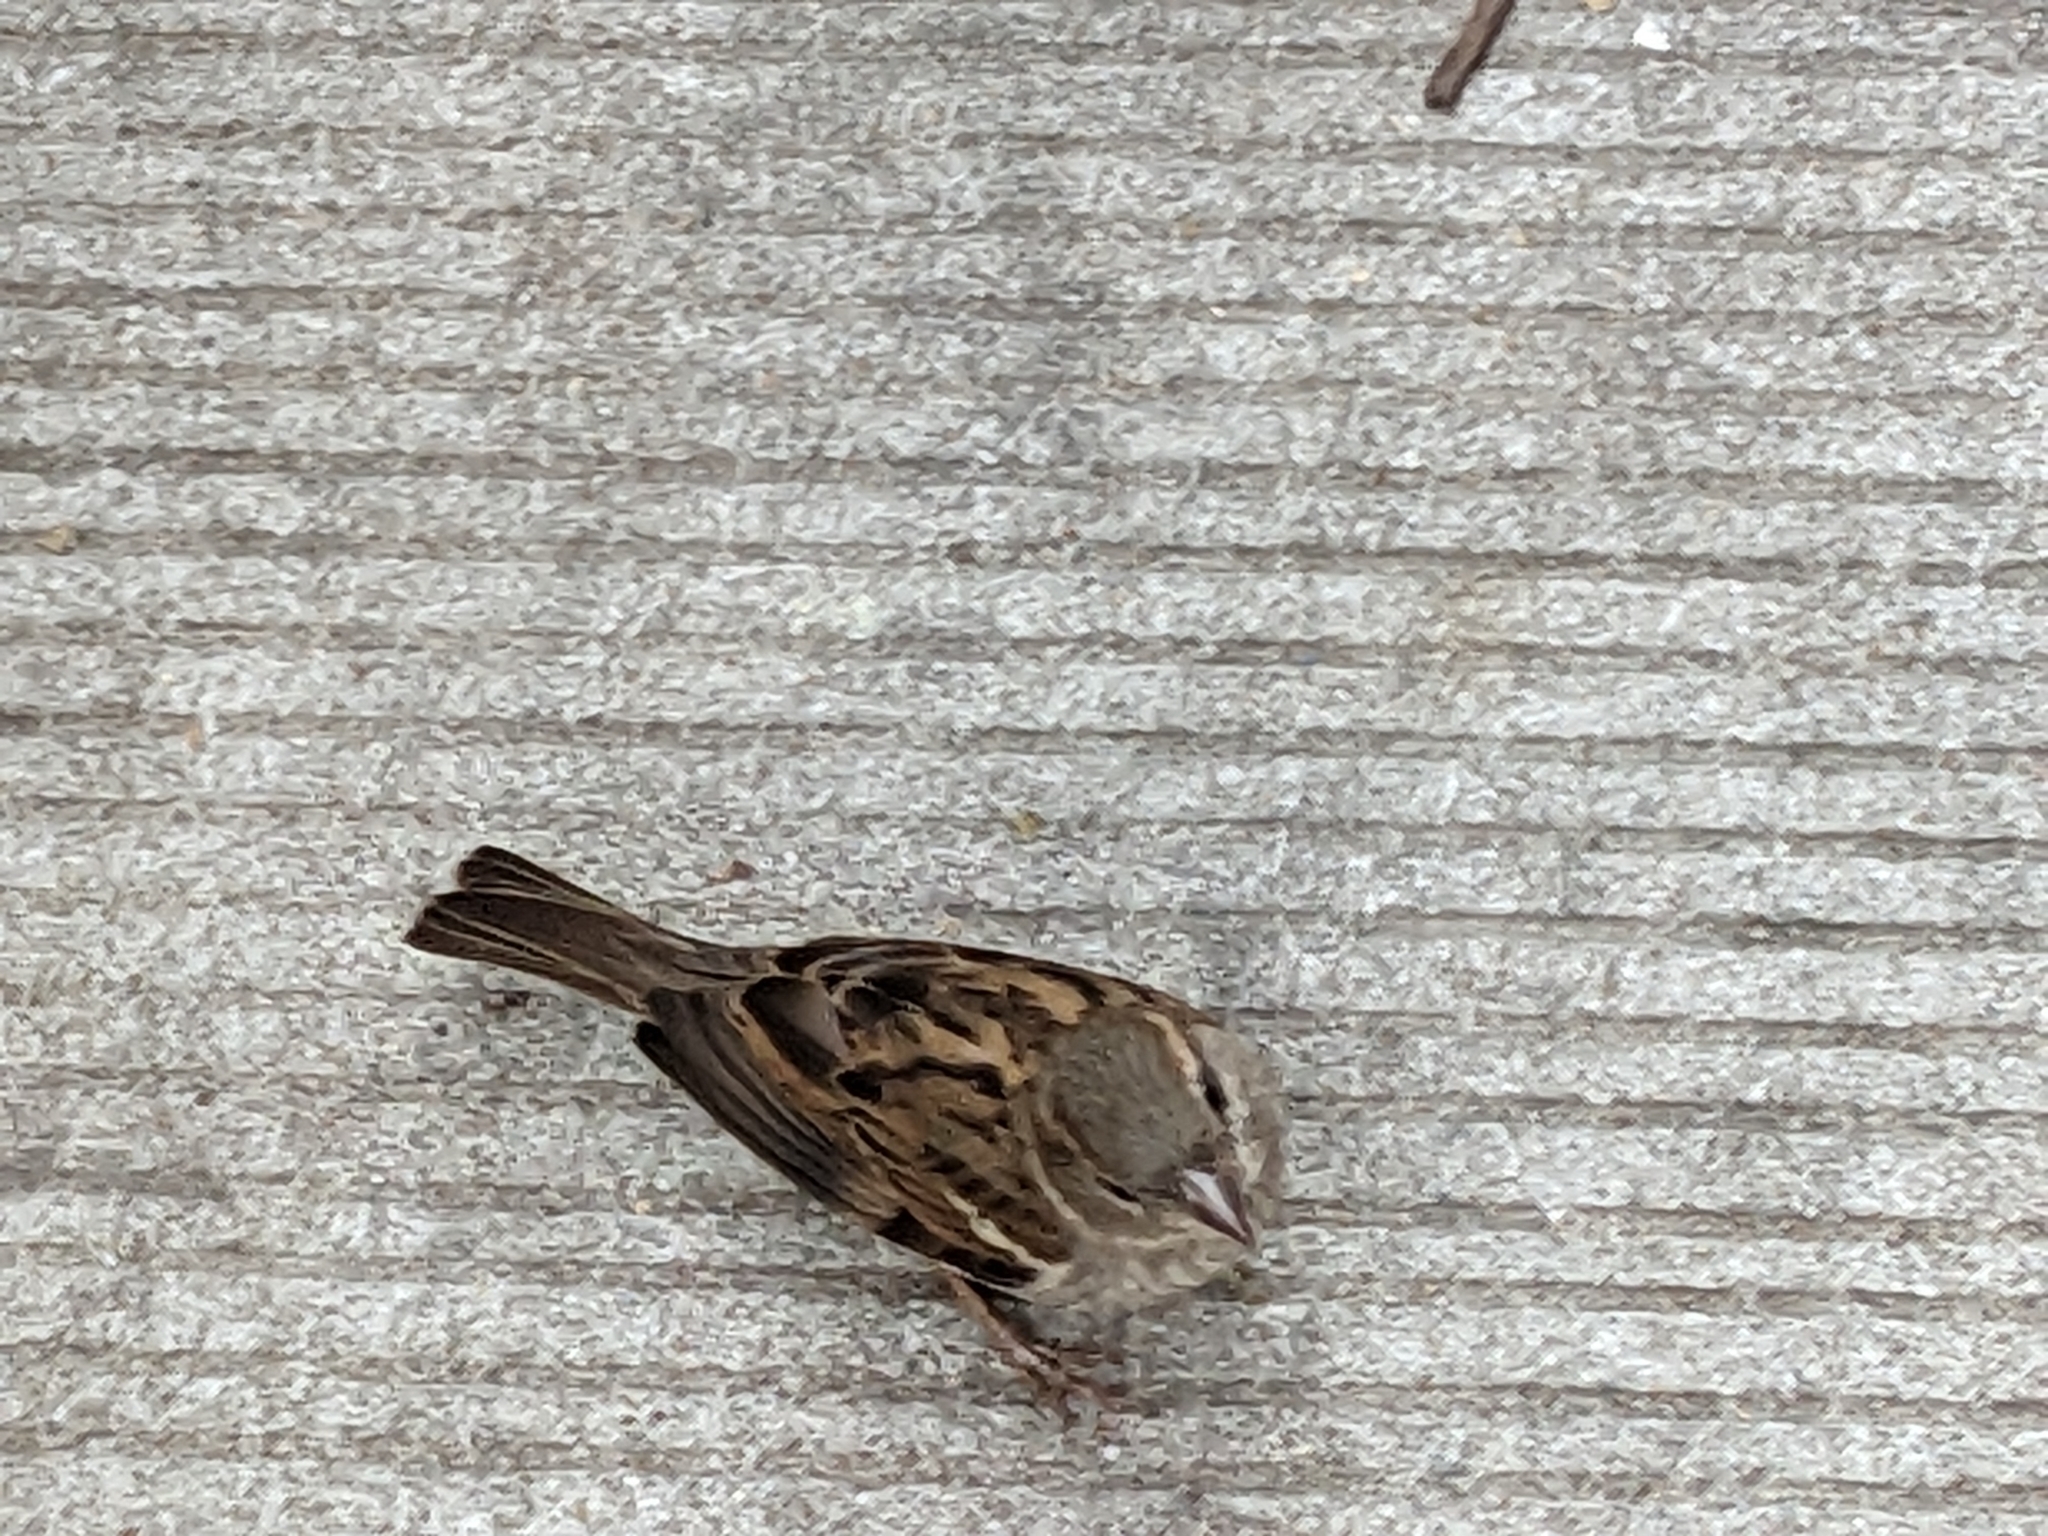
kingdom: Animalia
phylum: Chordata
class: Aves
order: Passeriformes
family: Passeridae
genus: Passer
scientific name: Passer domesticus
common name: House sparrow
